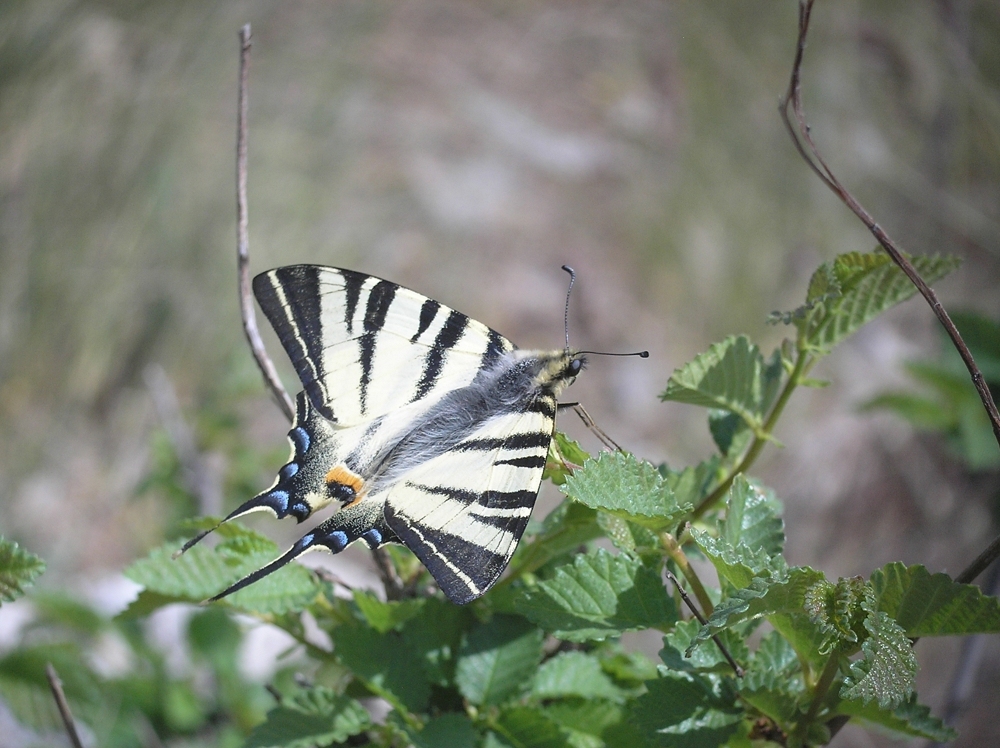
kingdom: Animalia
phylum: Arthropoda
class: Insecta
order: Lepidoptera
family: Papilionidae
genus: Iphiclides
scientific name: Iphiclides podalirius
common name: Scarce swallowtail
